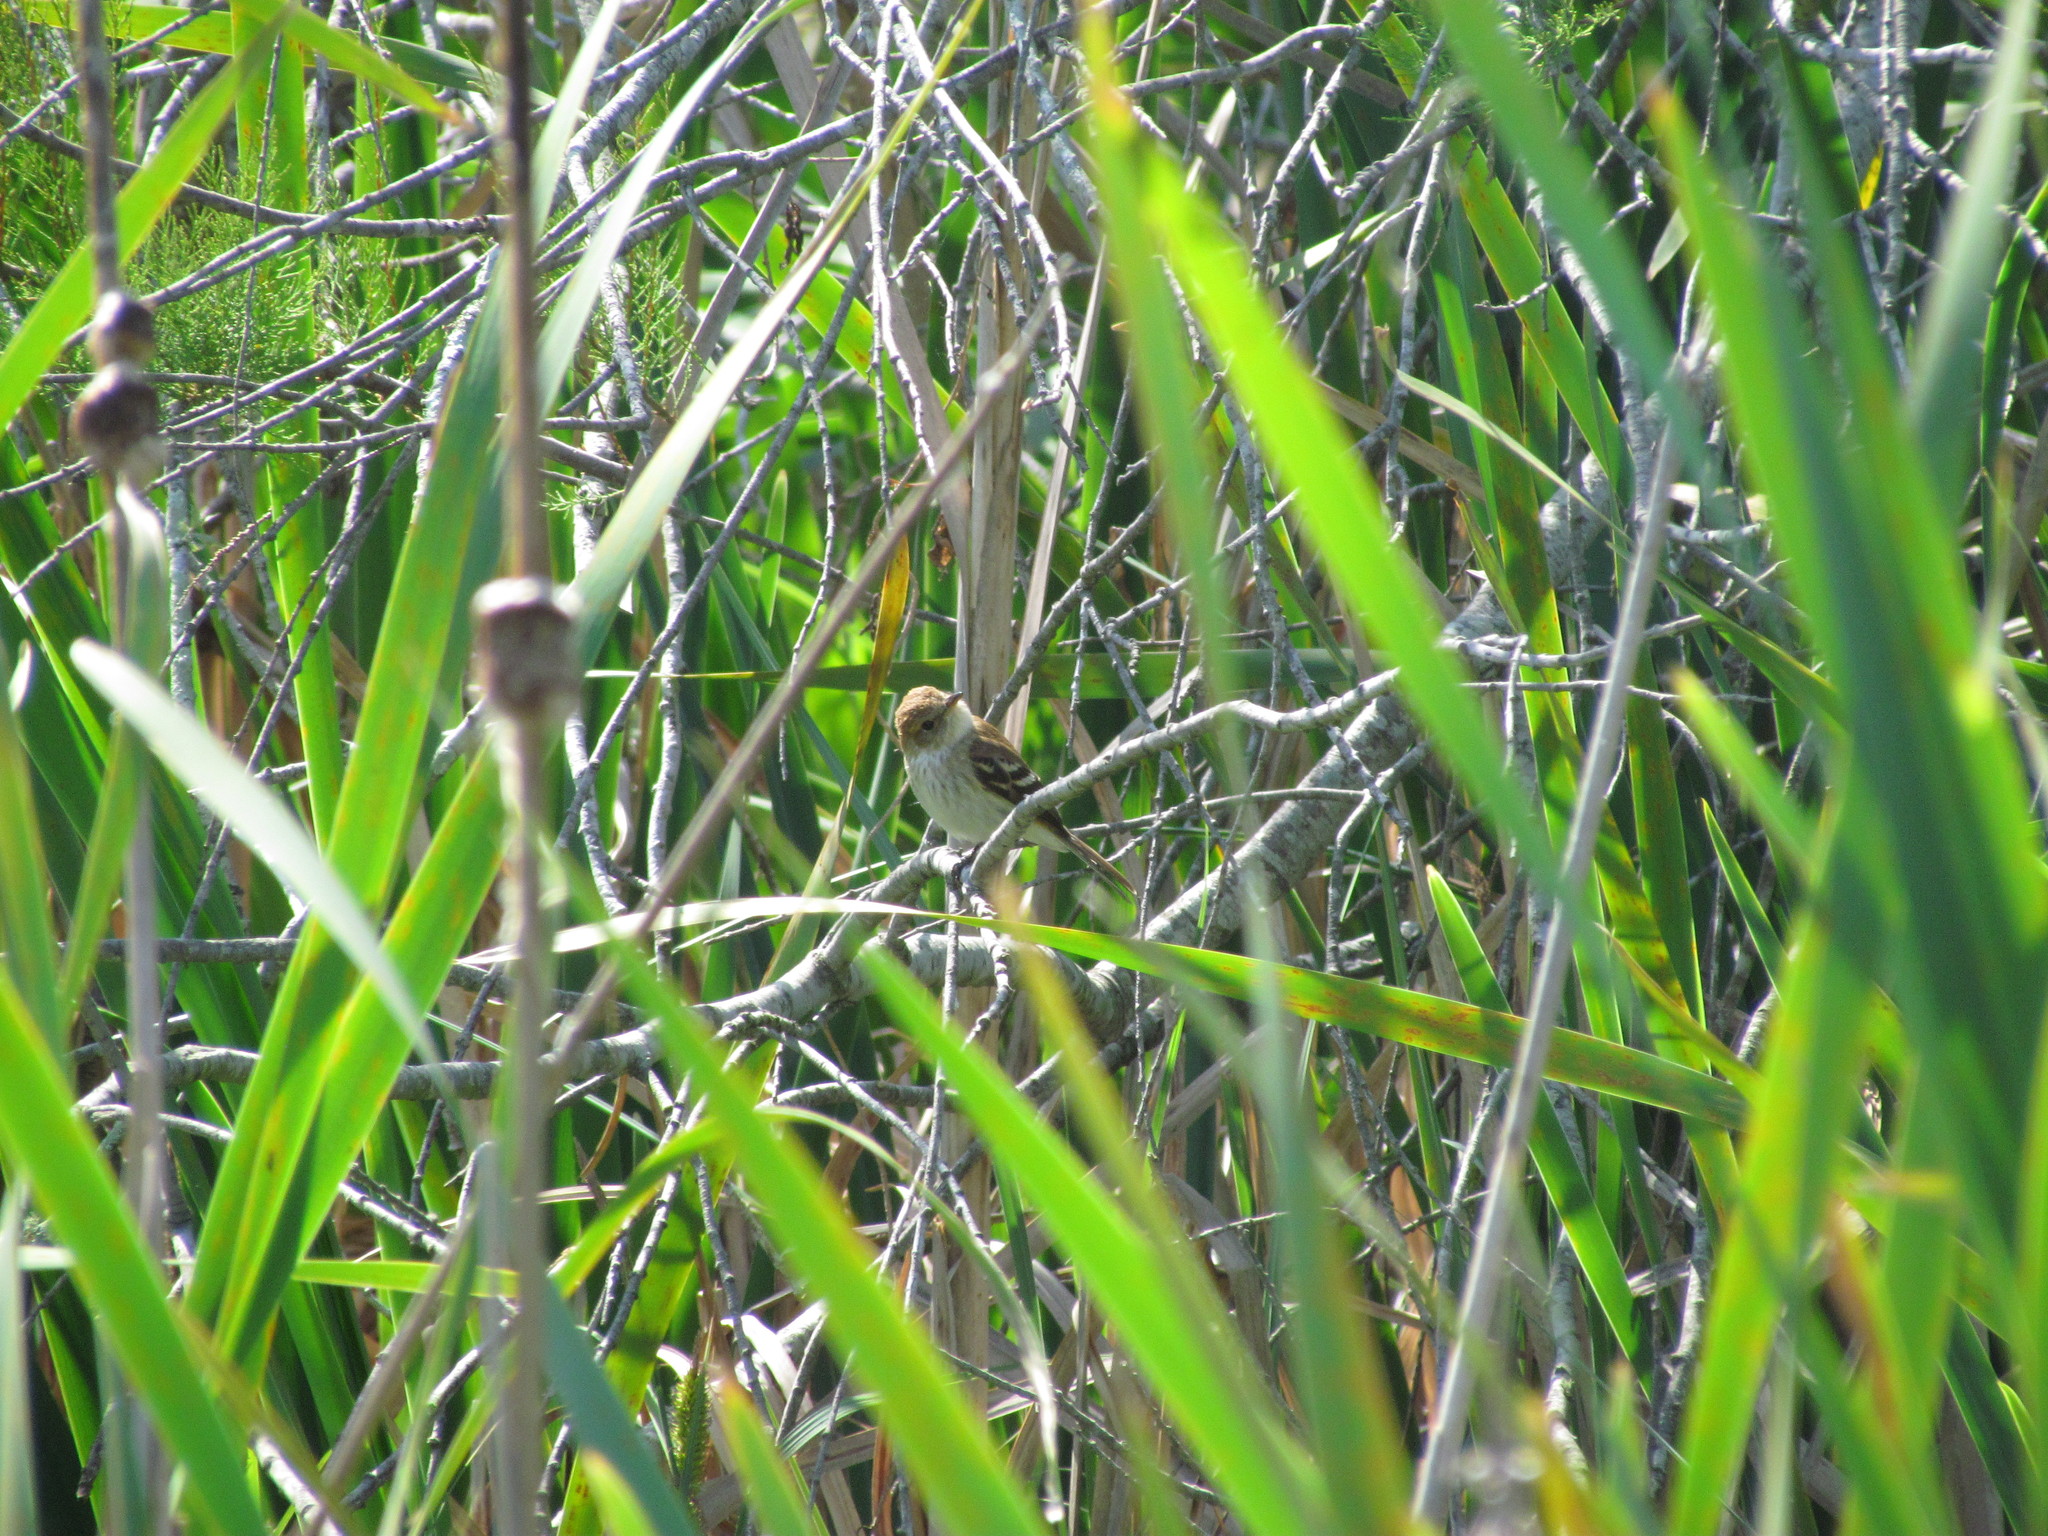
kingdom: Animalia
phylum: Chordata
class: Aves
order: Passeriformes
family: Tyrannidae
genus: Myiophobus
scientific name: Myiophobus fasciatus
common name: Bran-colored flycatcher
